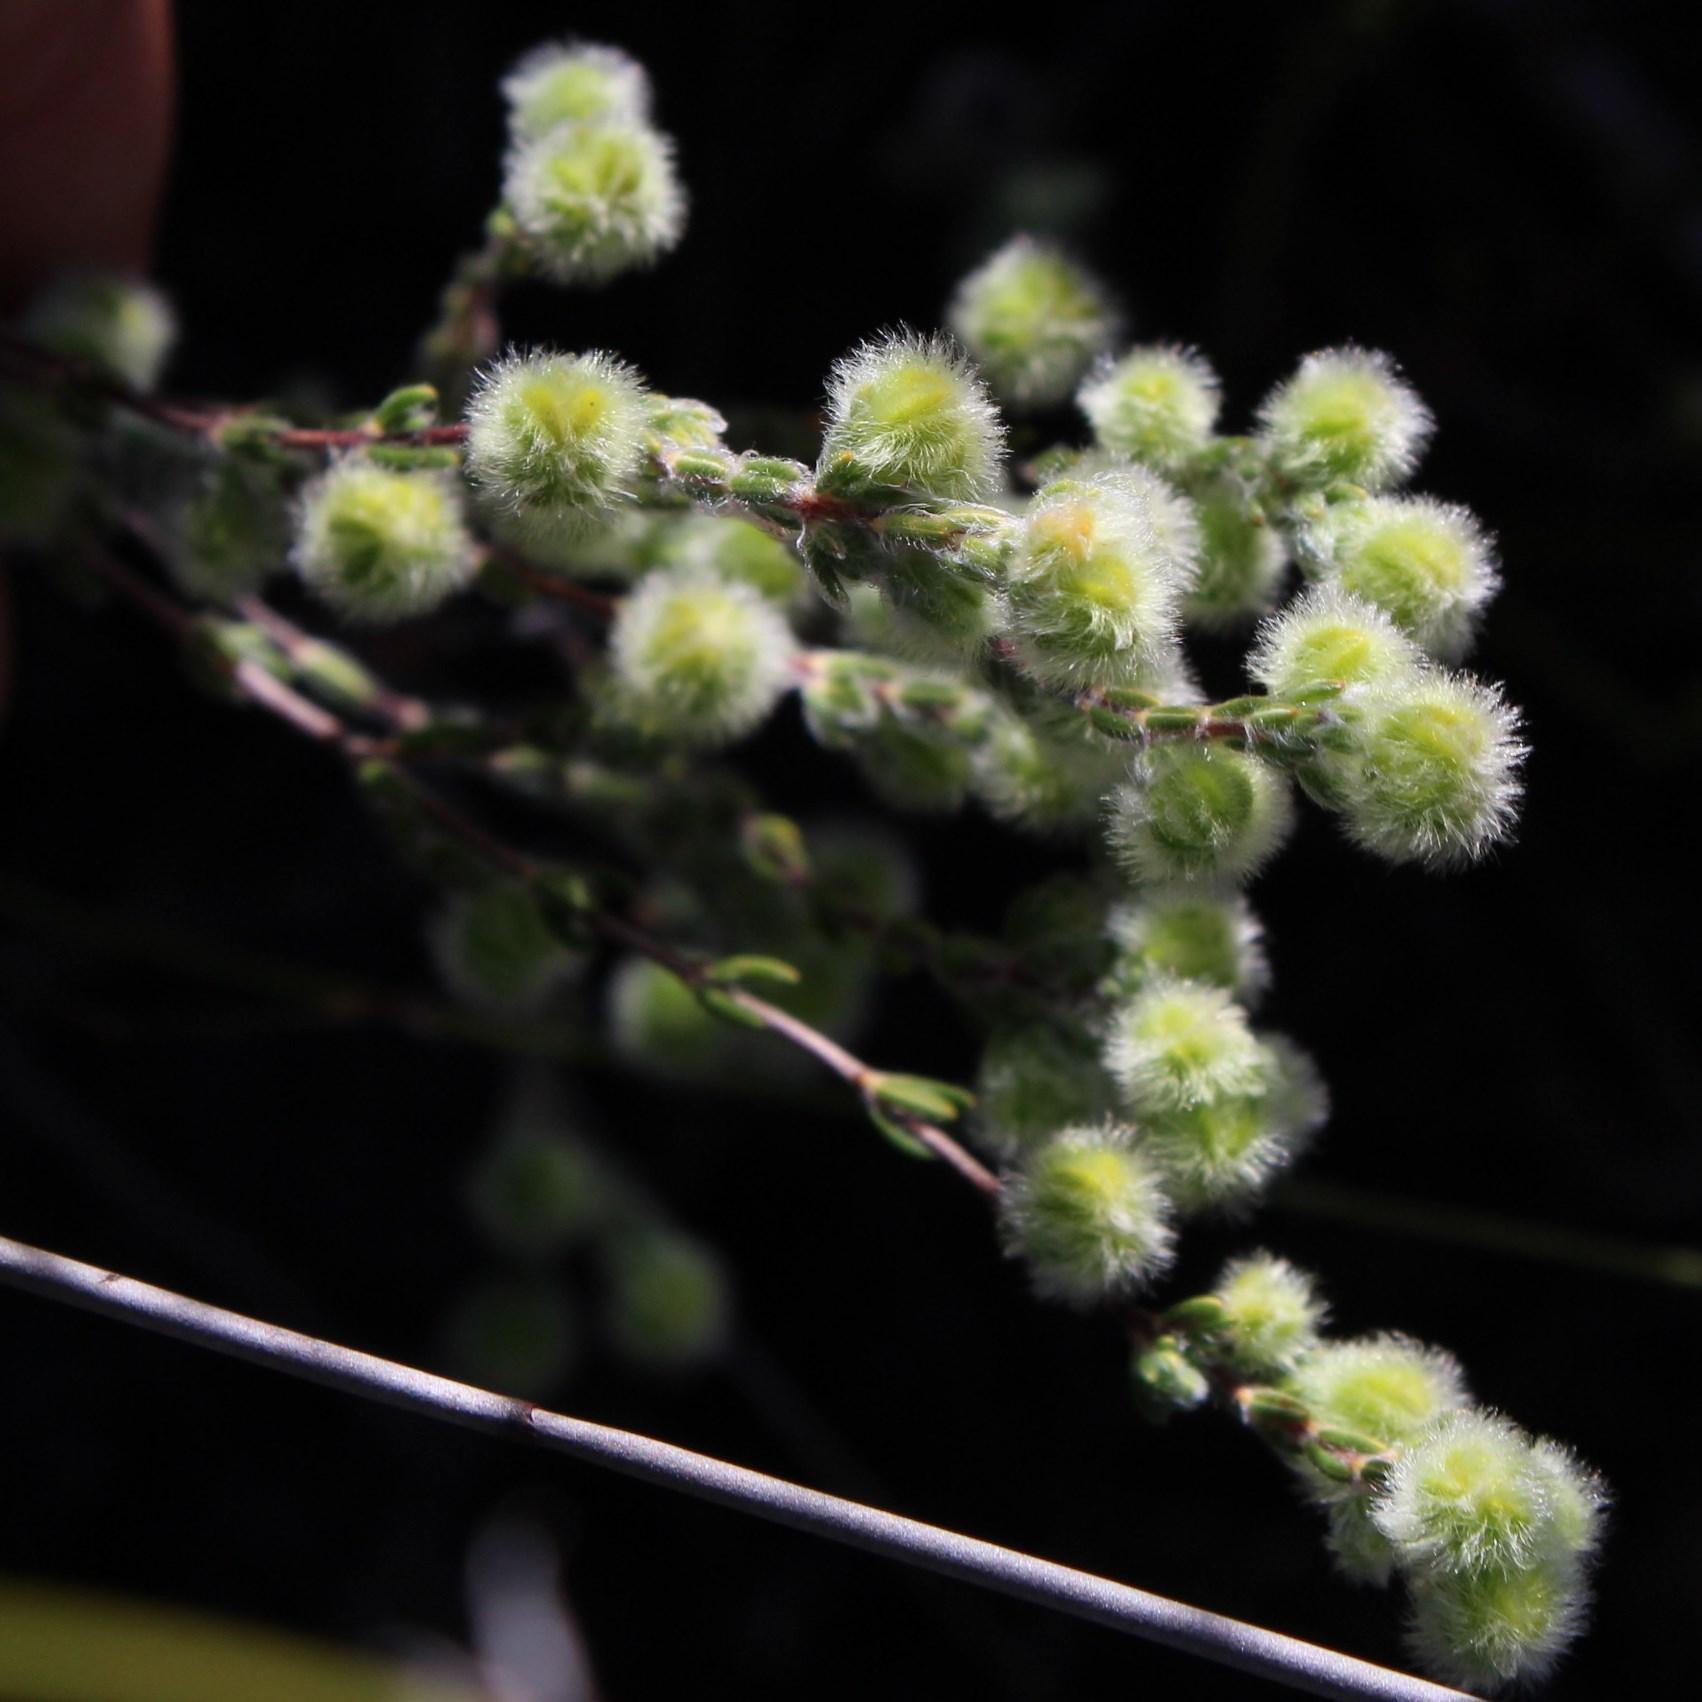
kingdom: Plantae
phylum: Tracheophyta
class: Magnoliopsida
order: Ericales
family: Ericaceae
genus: Erica
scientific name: Erica capitata
